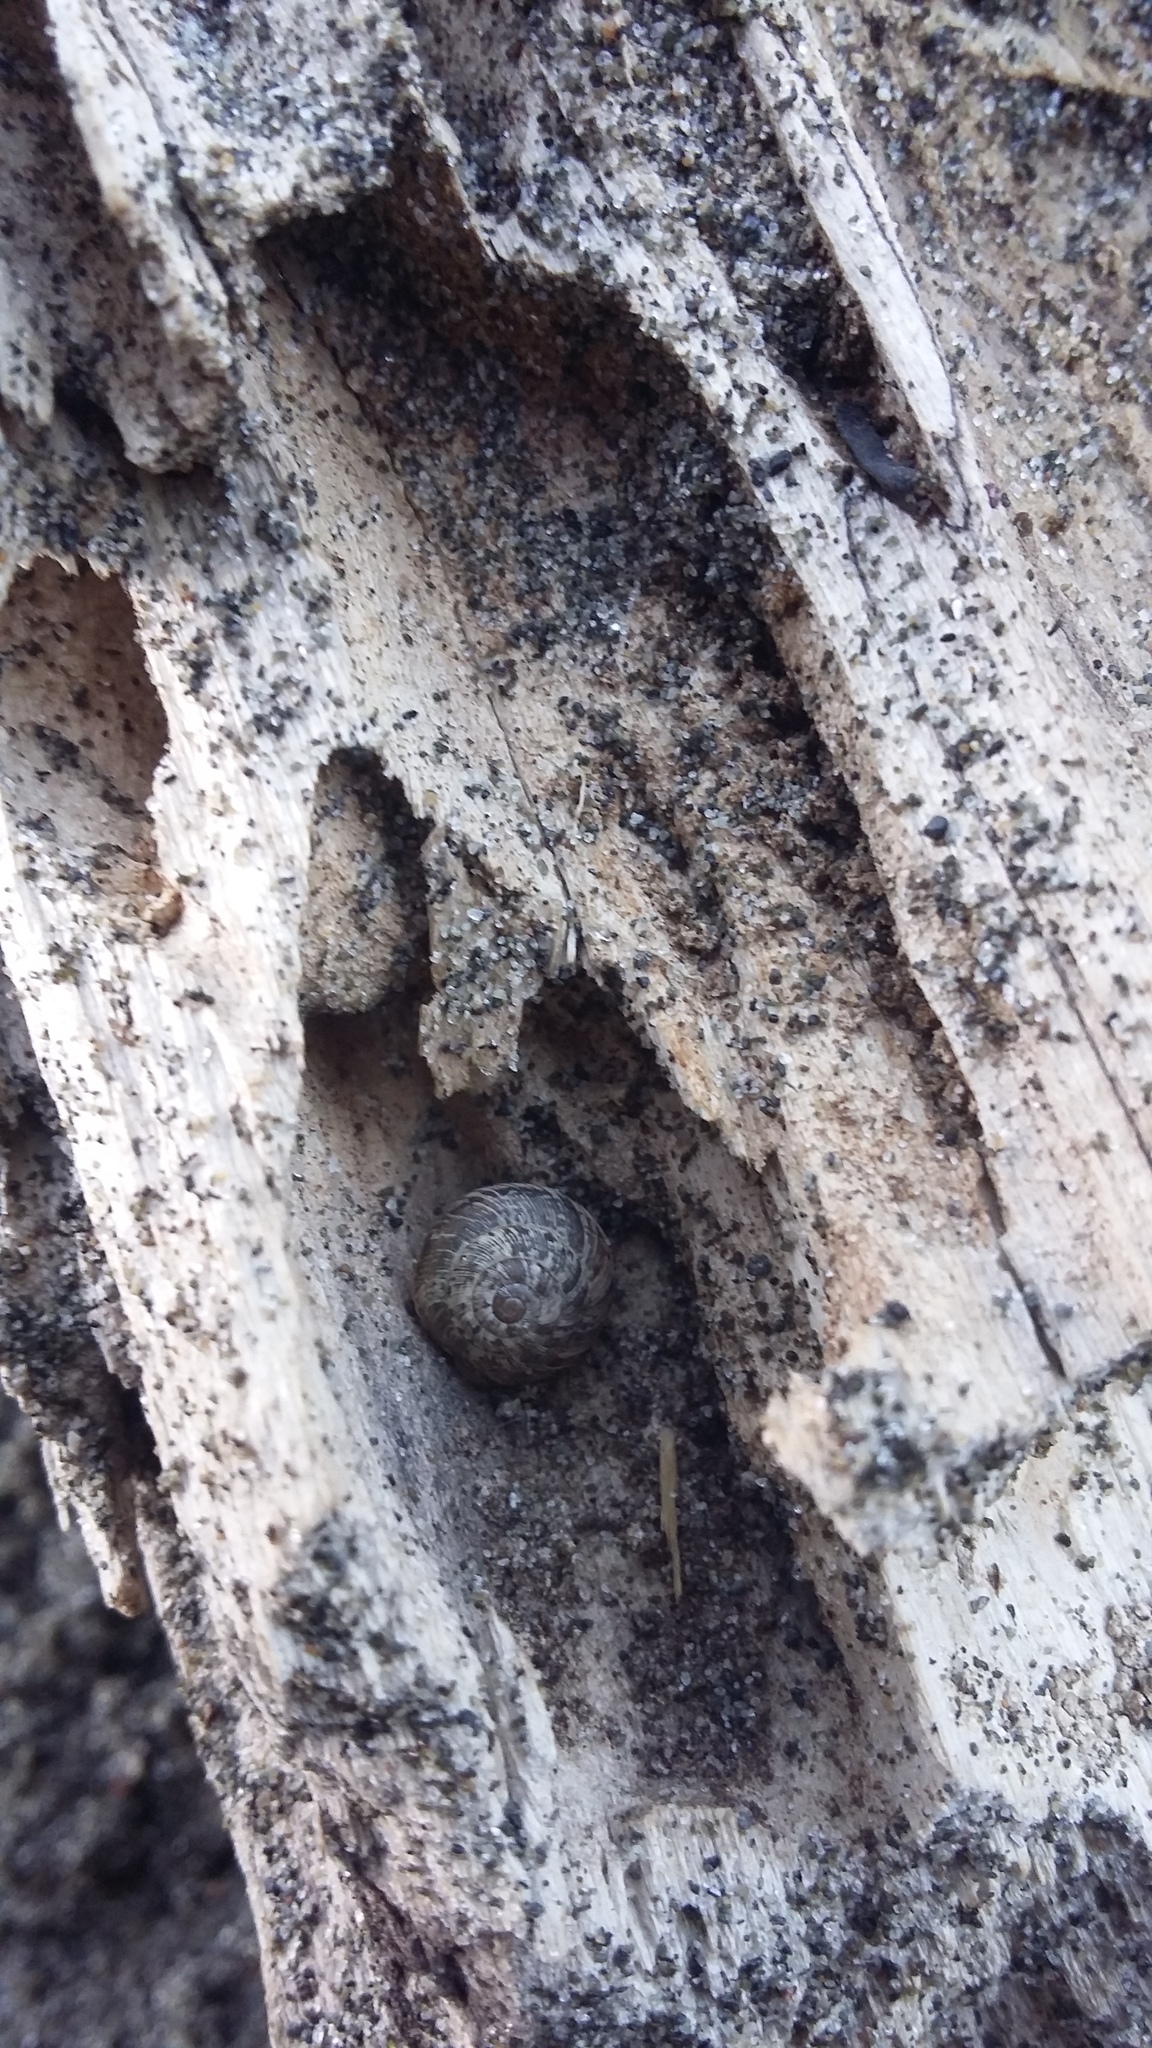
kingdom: Animalia
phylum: Mollusca
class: Gastropoda
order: Stylommatophora
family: Geomitridae
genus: Xeroplexa
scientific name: Xeroplexa intersecta
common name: Wrinkled snail
